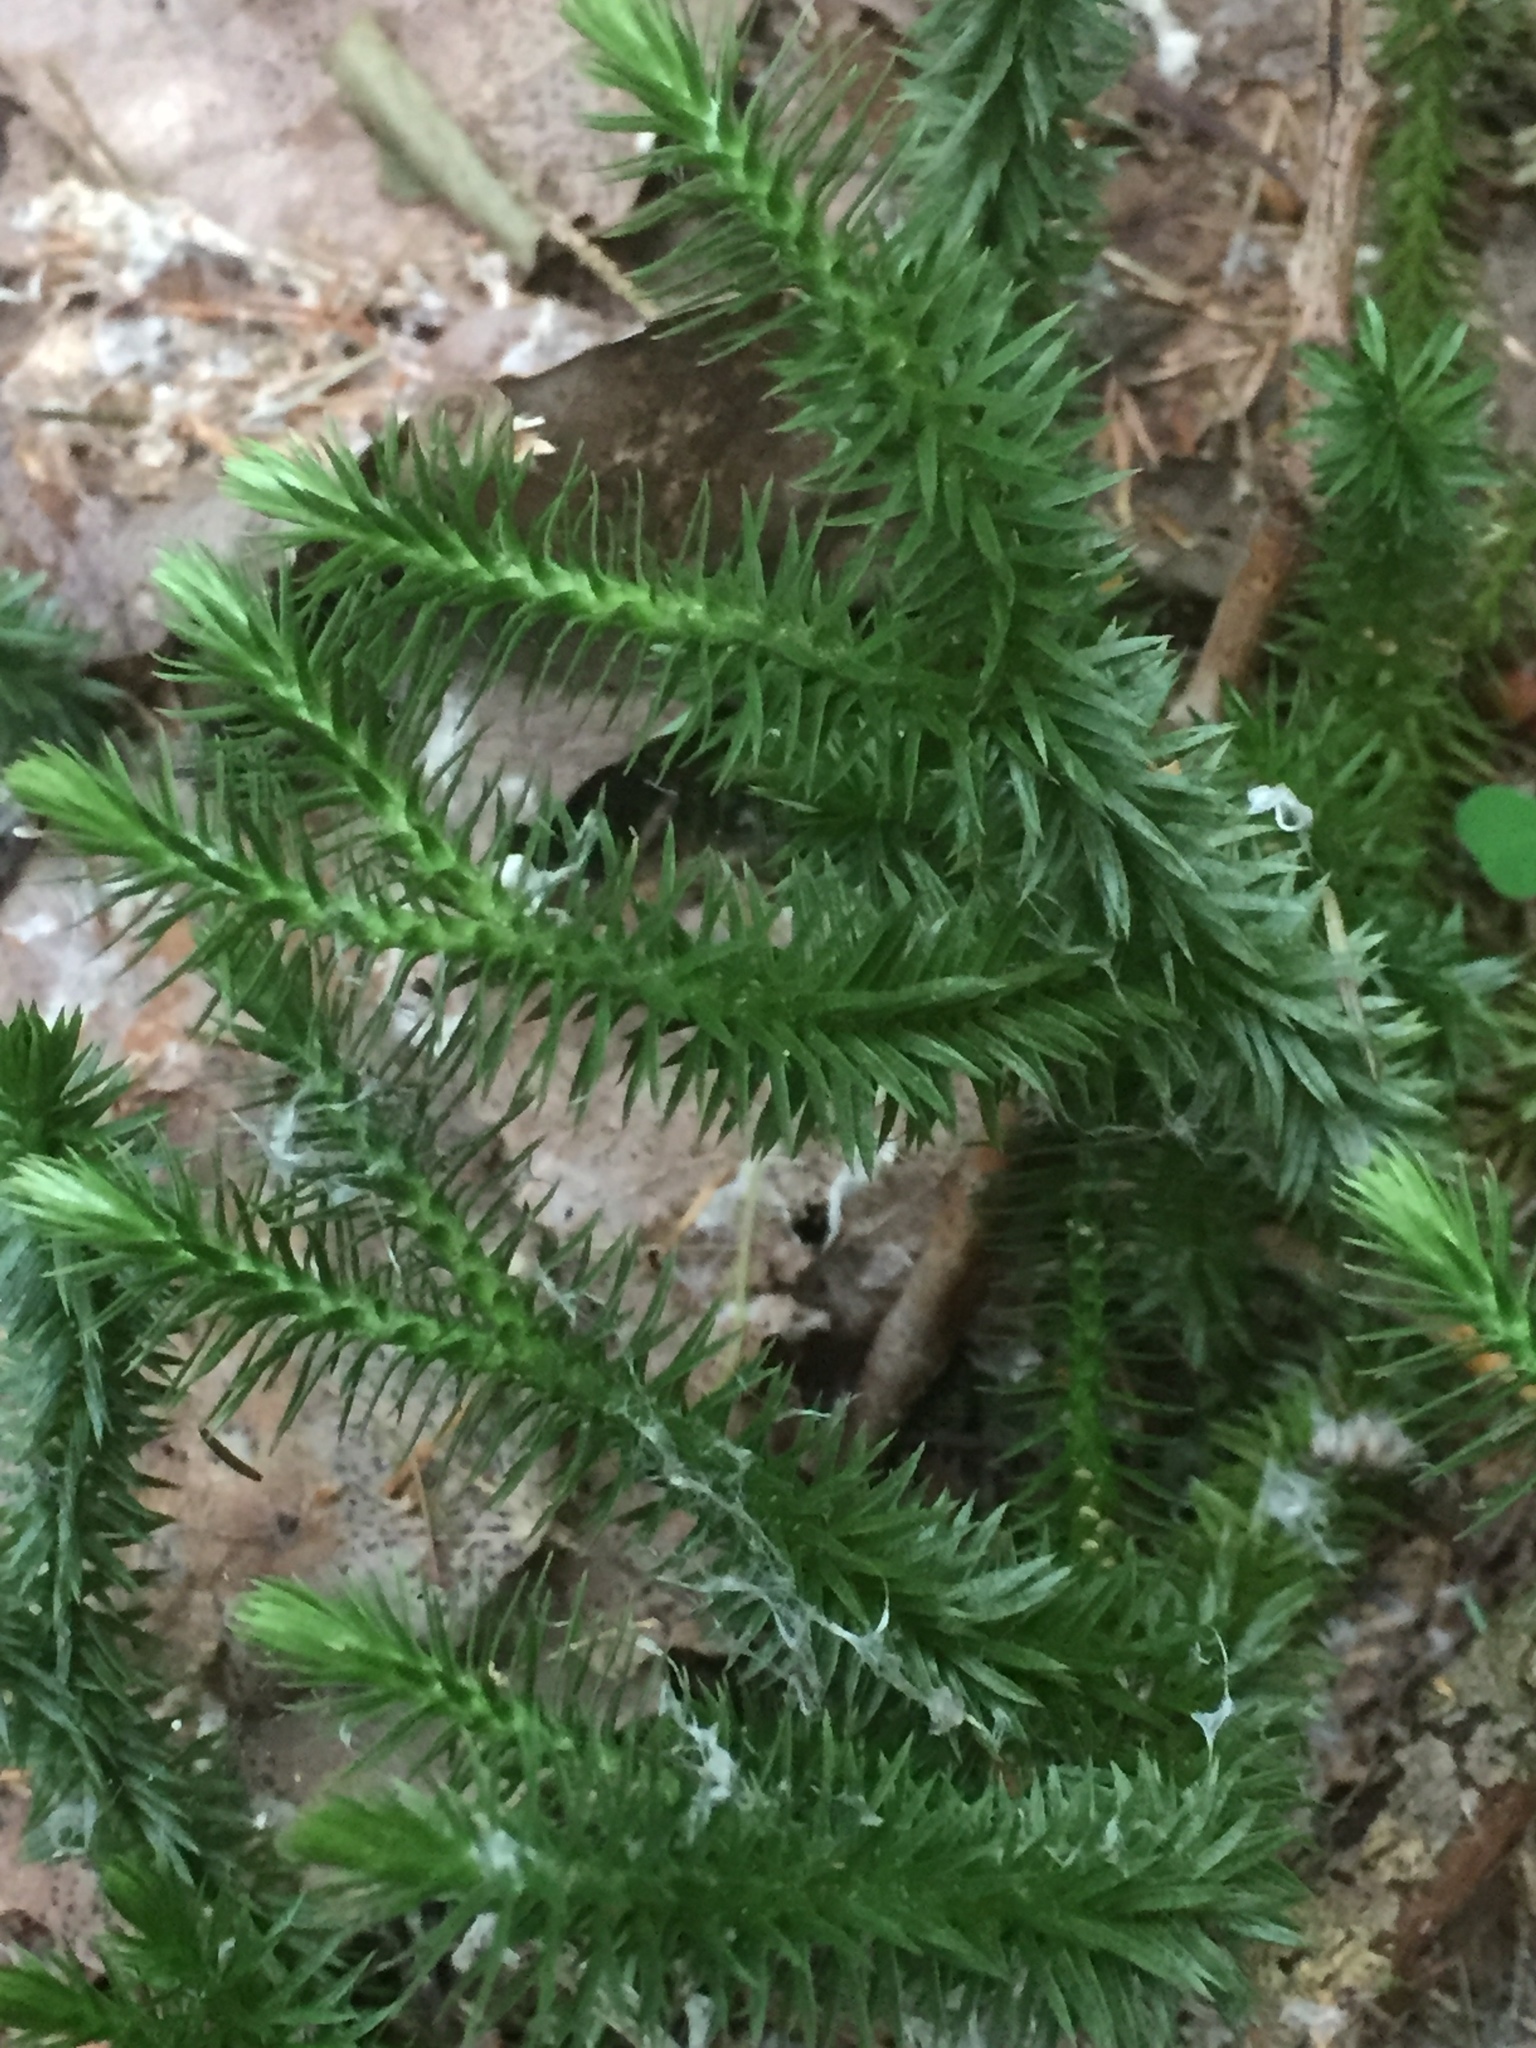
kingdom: Plantae
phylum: Tracheophyta
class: Lycopodiopsida
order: Lycopodiales
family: Lycopodiaceae
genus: Huperzia
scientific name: Huperzia selago
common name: Northern firmoss
